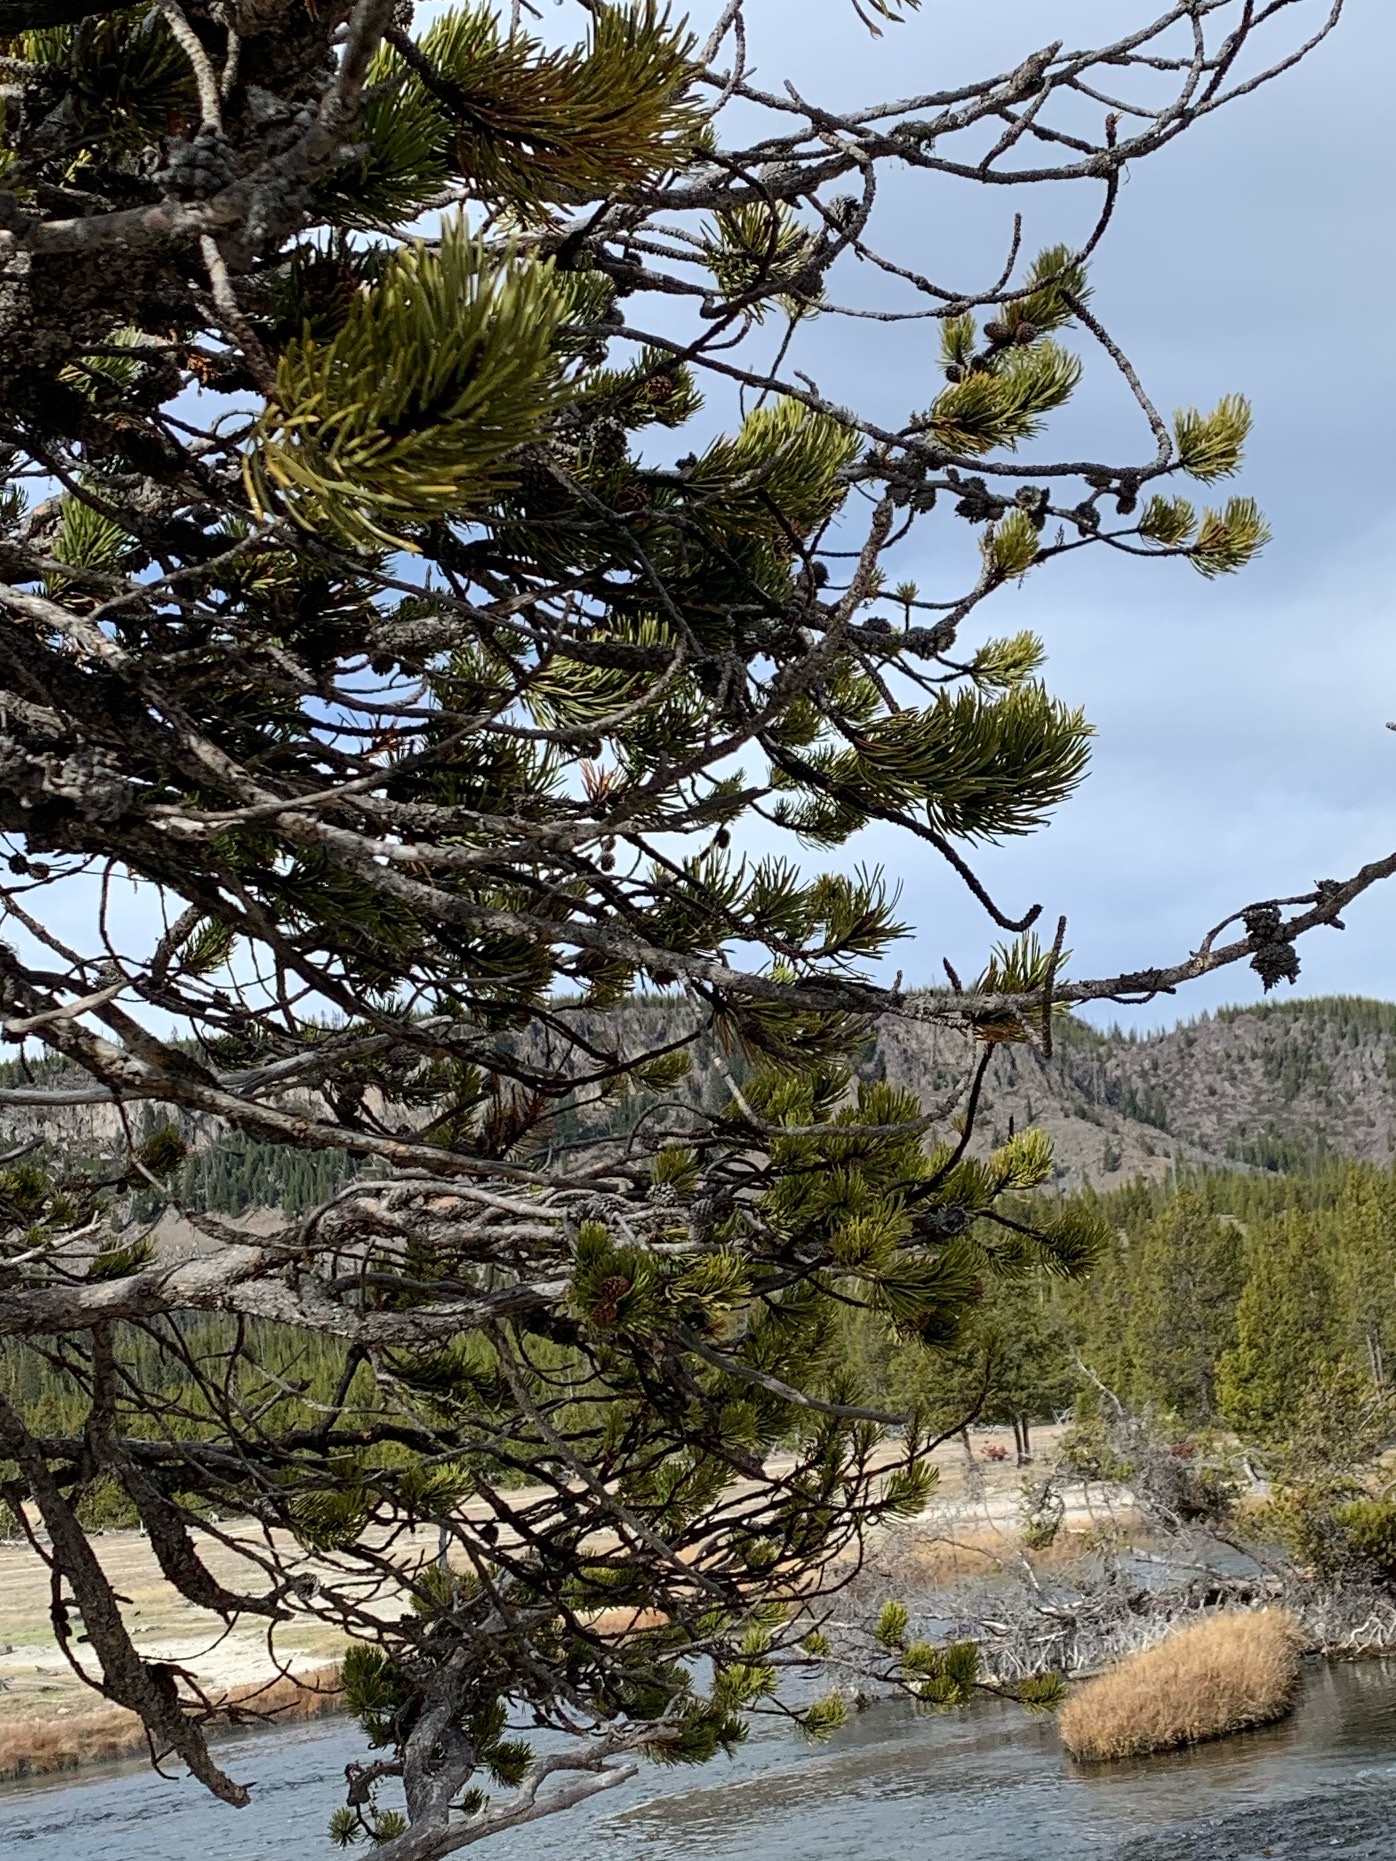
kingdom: Plantae
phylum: Tracheophyta
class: Pinopsida
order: Pinales
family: Pinaceae
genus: Pinus
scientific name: Pinus contorta
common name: Lodgepole pine
